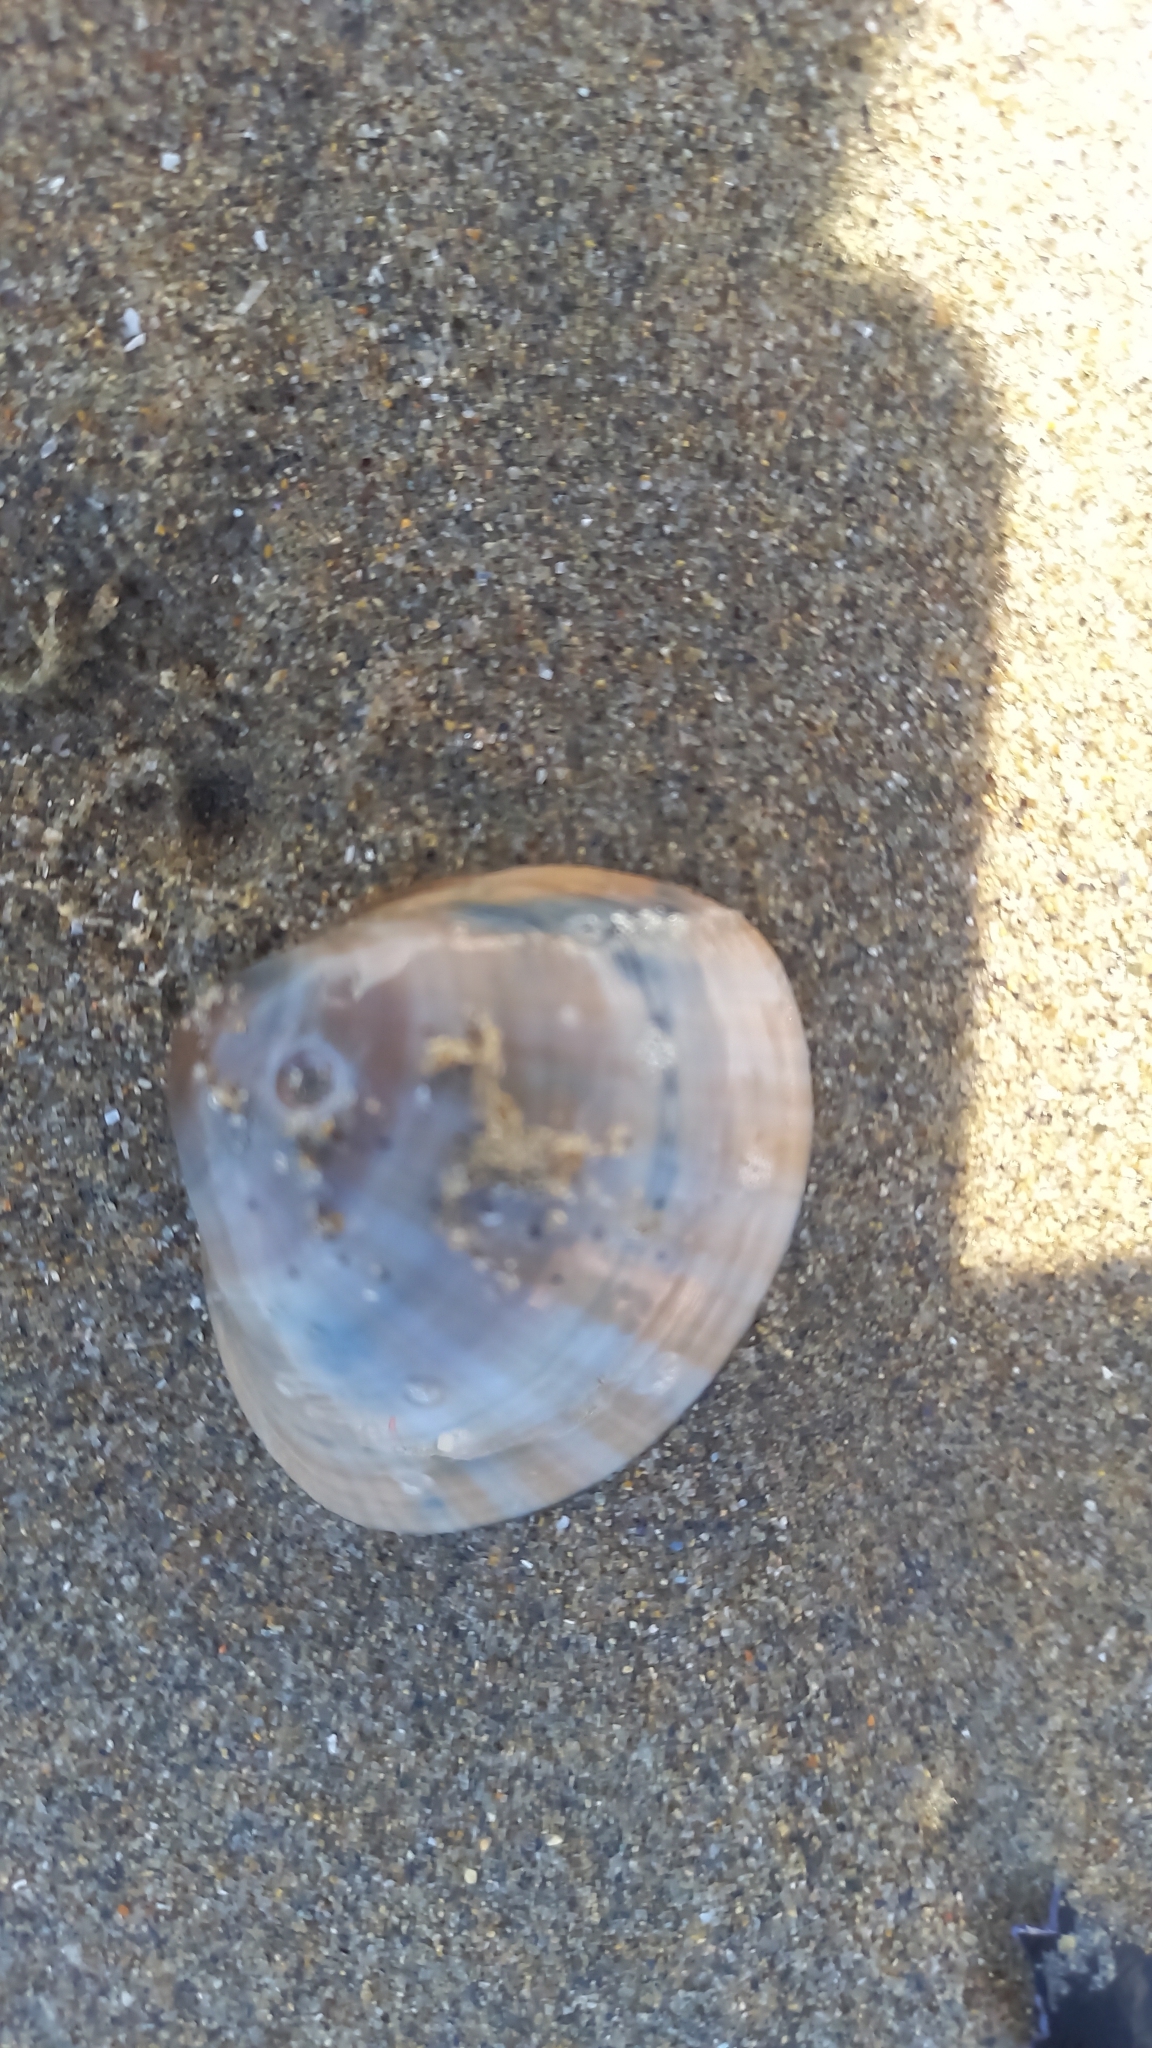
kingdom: Animalia
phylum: Mollusca
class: Bivalvia
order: Venerida
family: Mactridae
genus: Mactra
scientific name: Mactra stultorum
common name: Rayed trough shell
